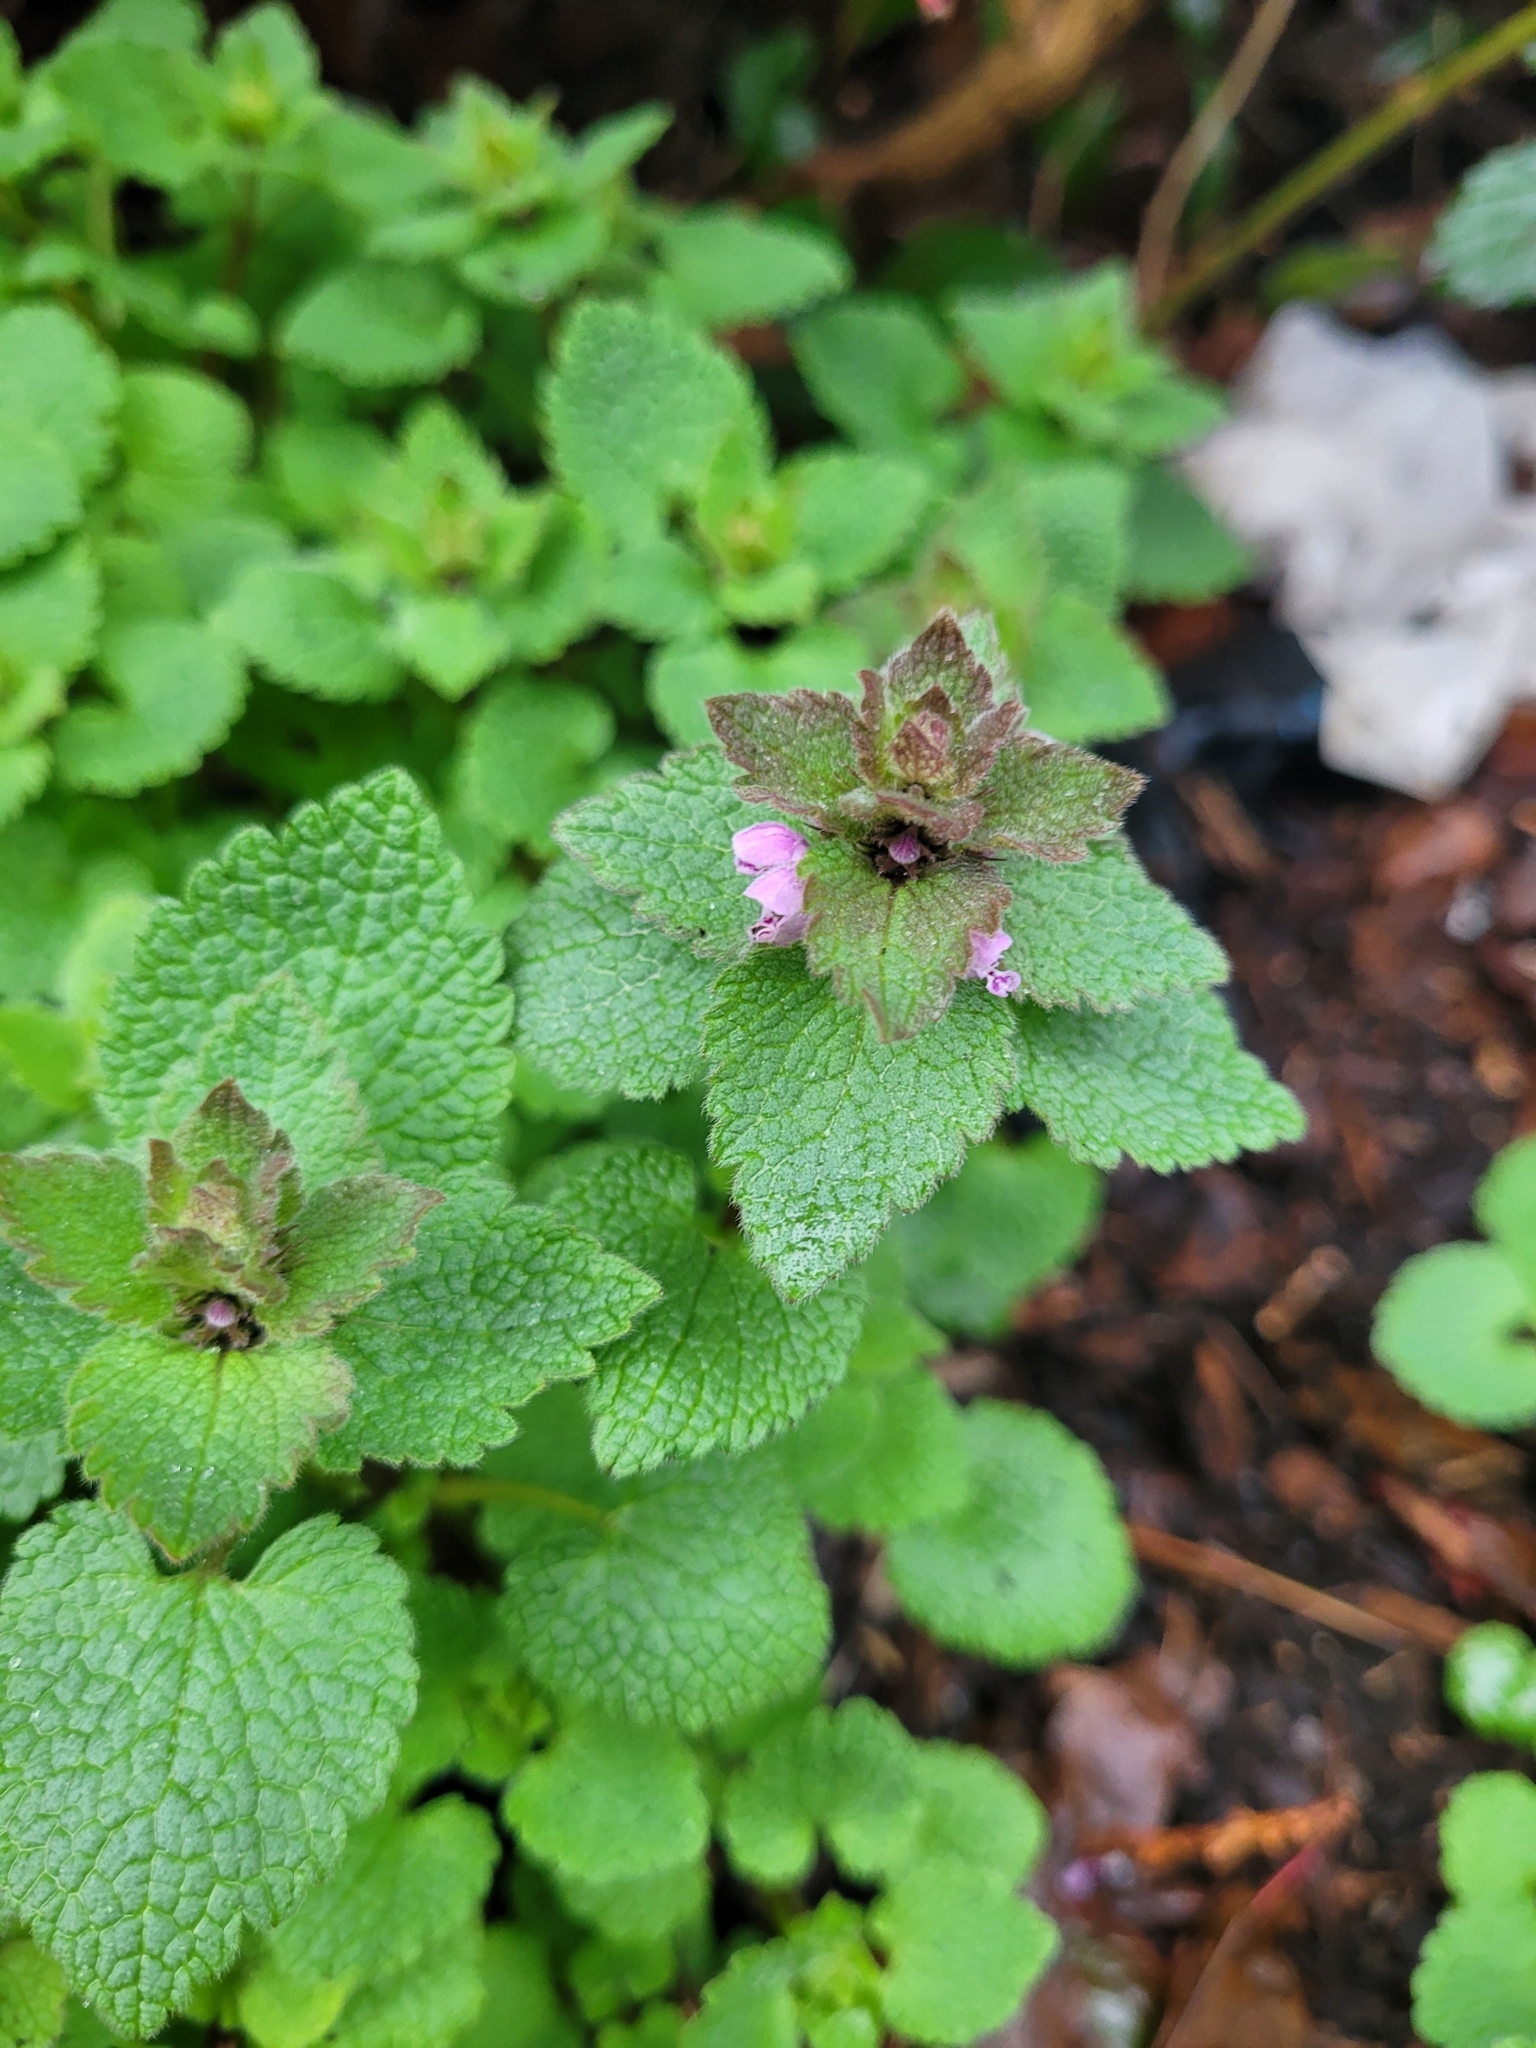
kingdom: Plantae
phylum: Tracheophyta
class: Magnoliopsida
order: Lamiales
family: Lamiaceae
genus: Lamium
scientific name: Lamium purpureum
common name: Red dead-nettle
